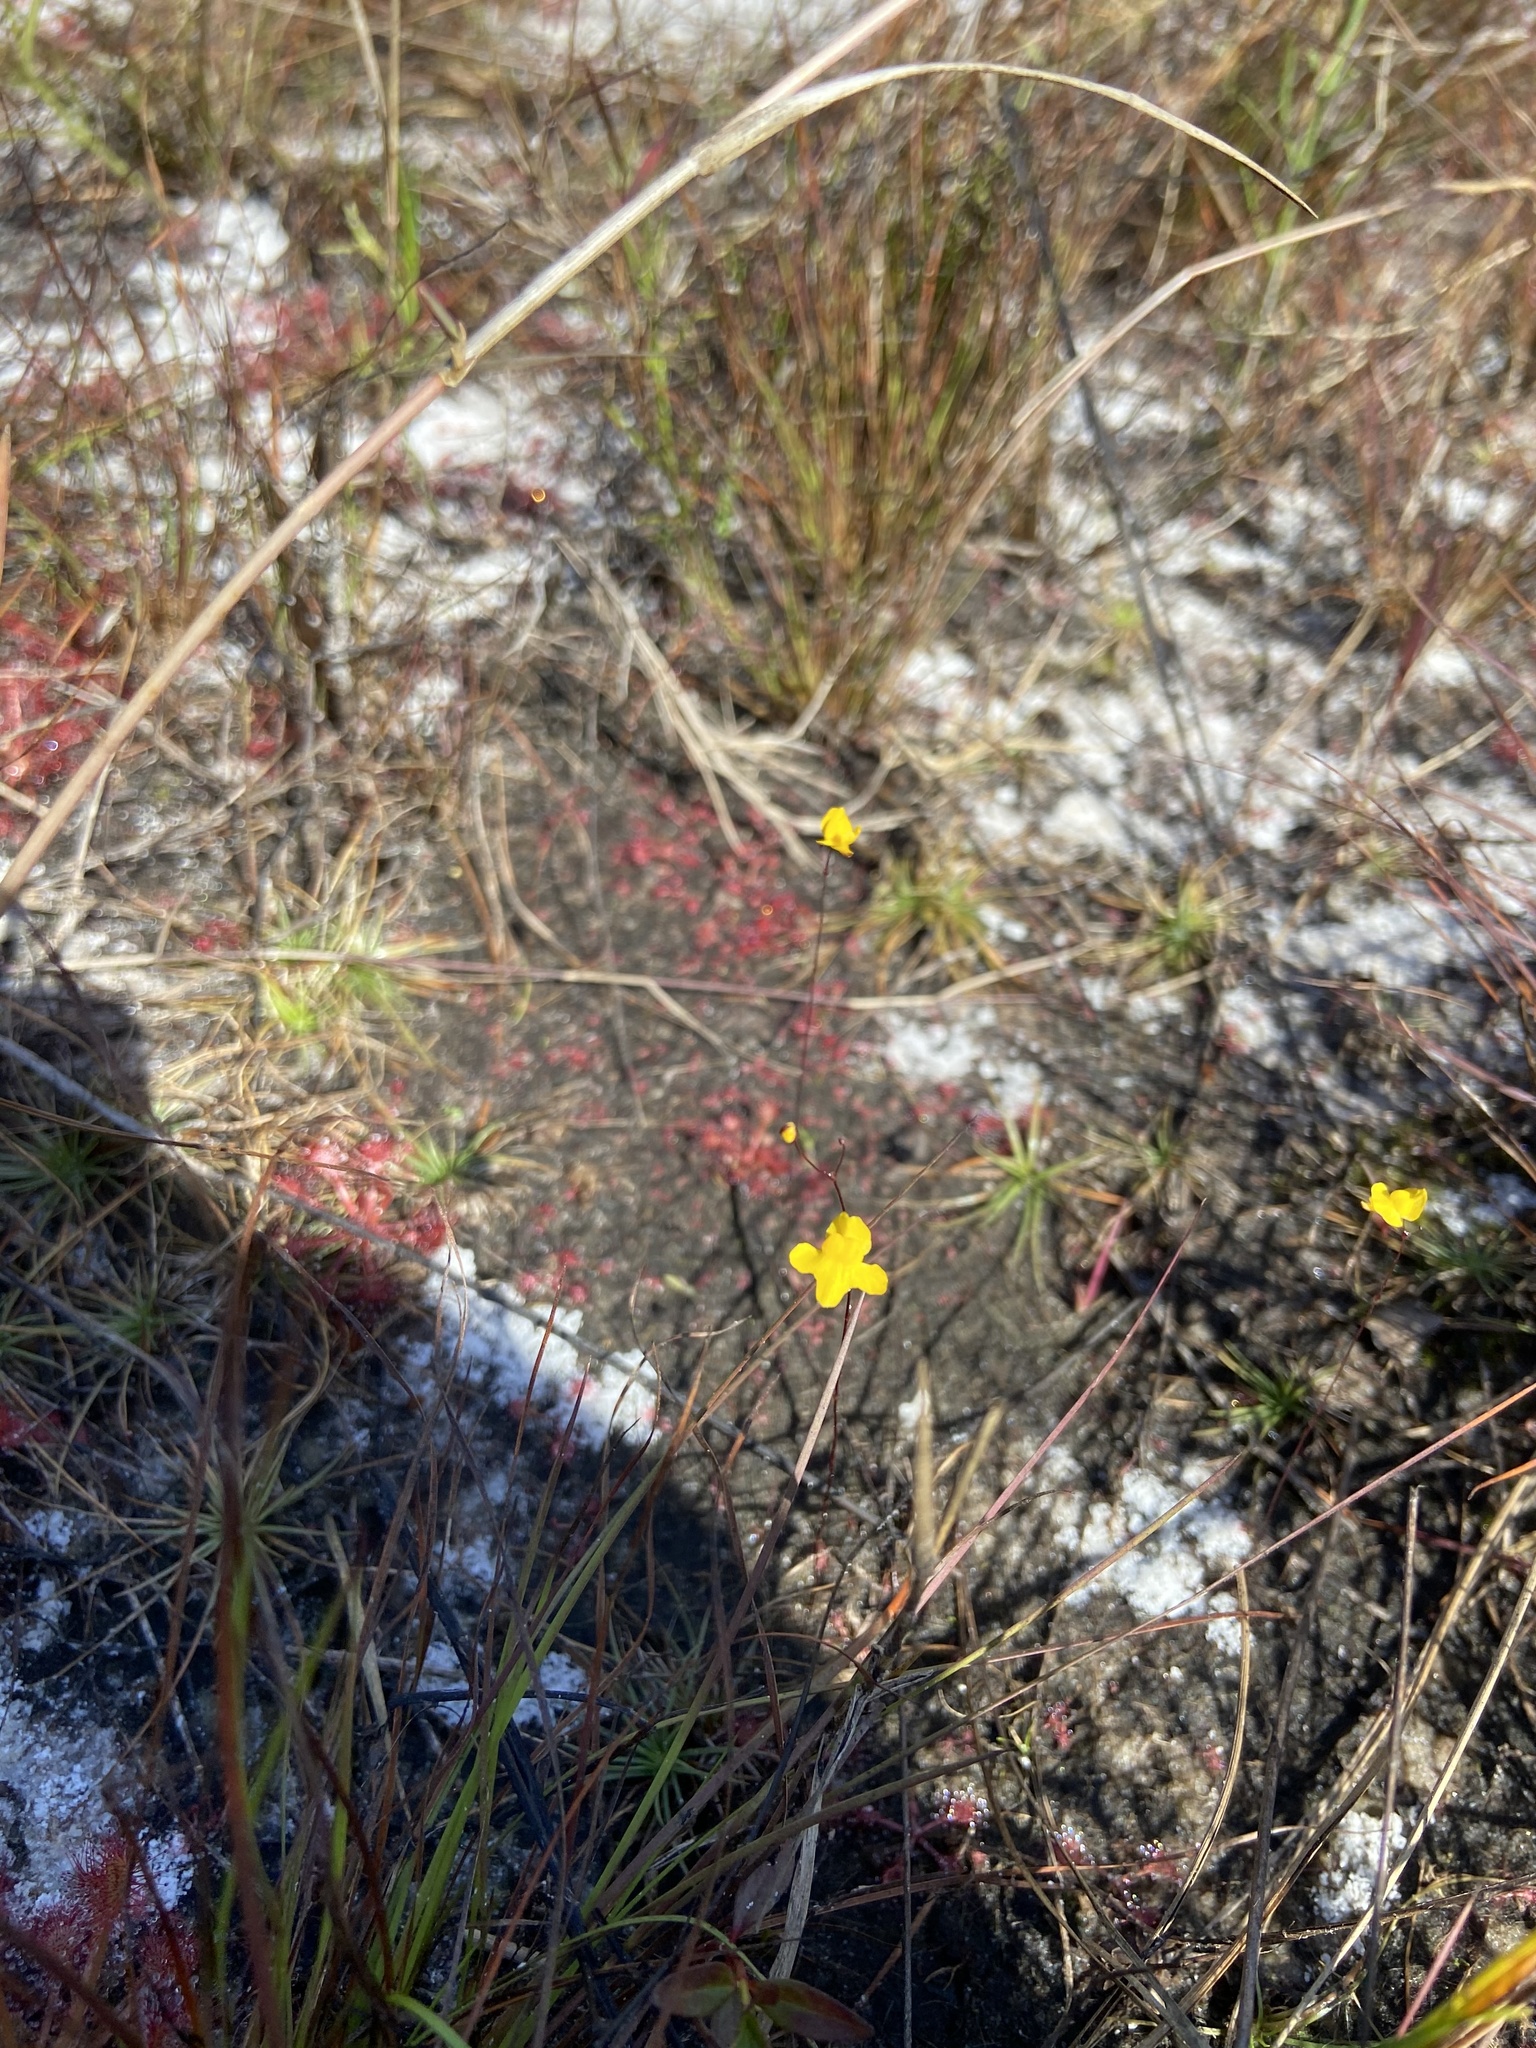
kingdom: Plantae
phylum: Tracheophyta
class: Magnoliopsida
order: Lamiales
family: Lentibulariaceae
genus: Utricularia
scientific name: Utricularia subulata
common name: Tiny bladderwort
